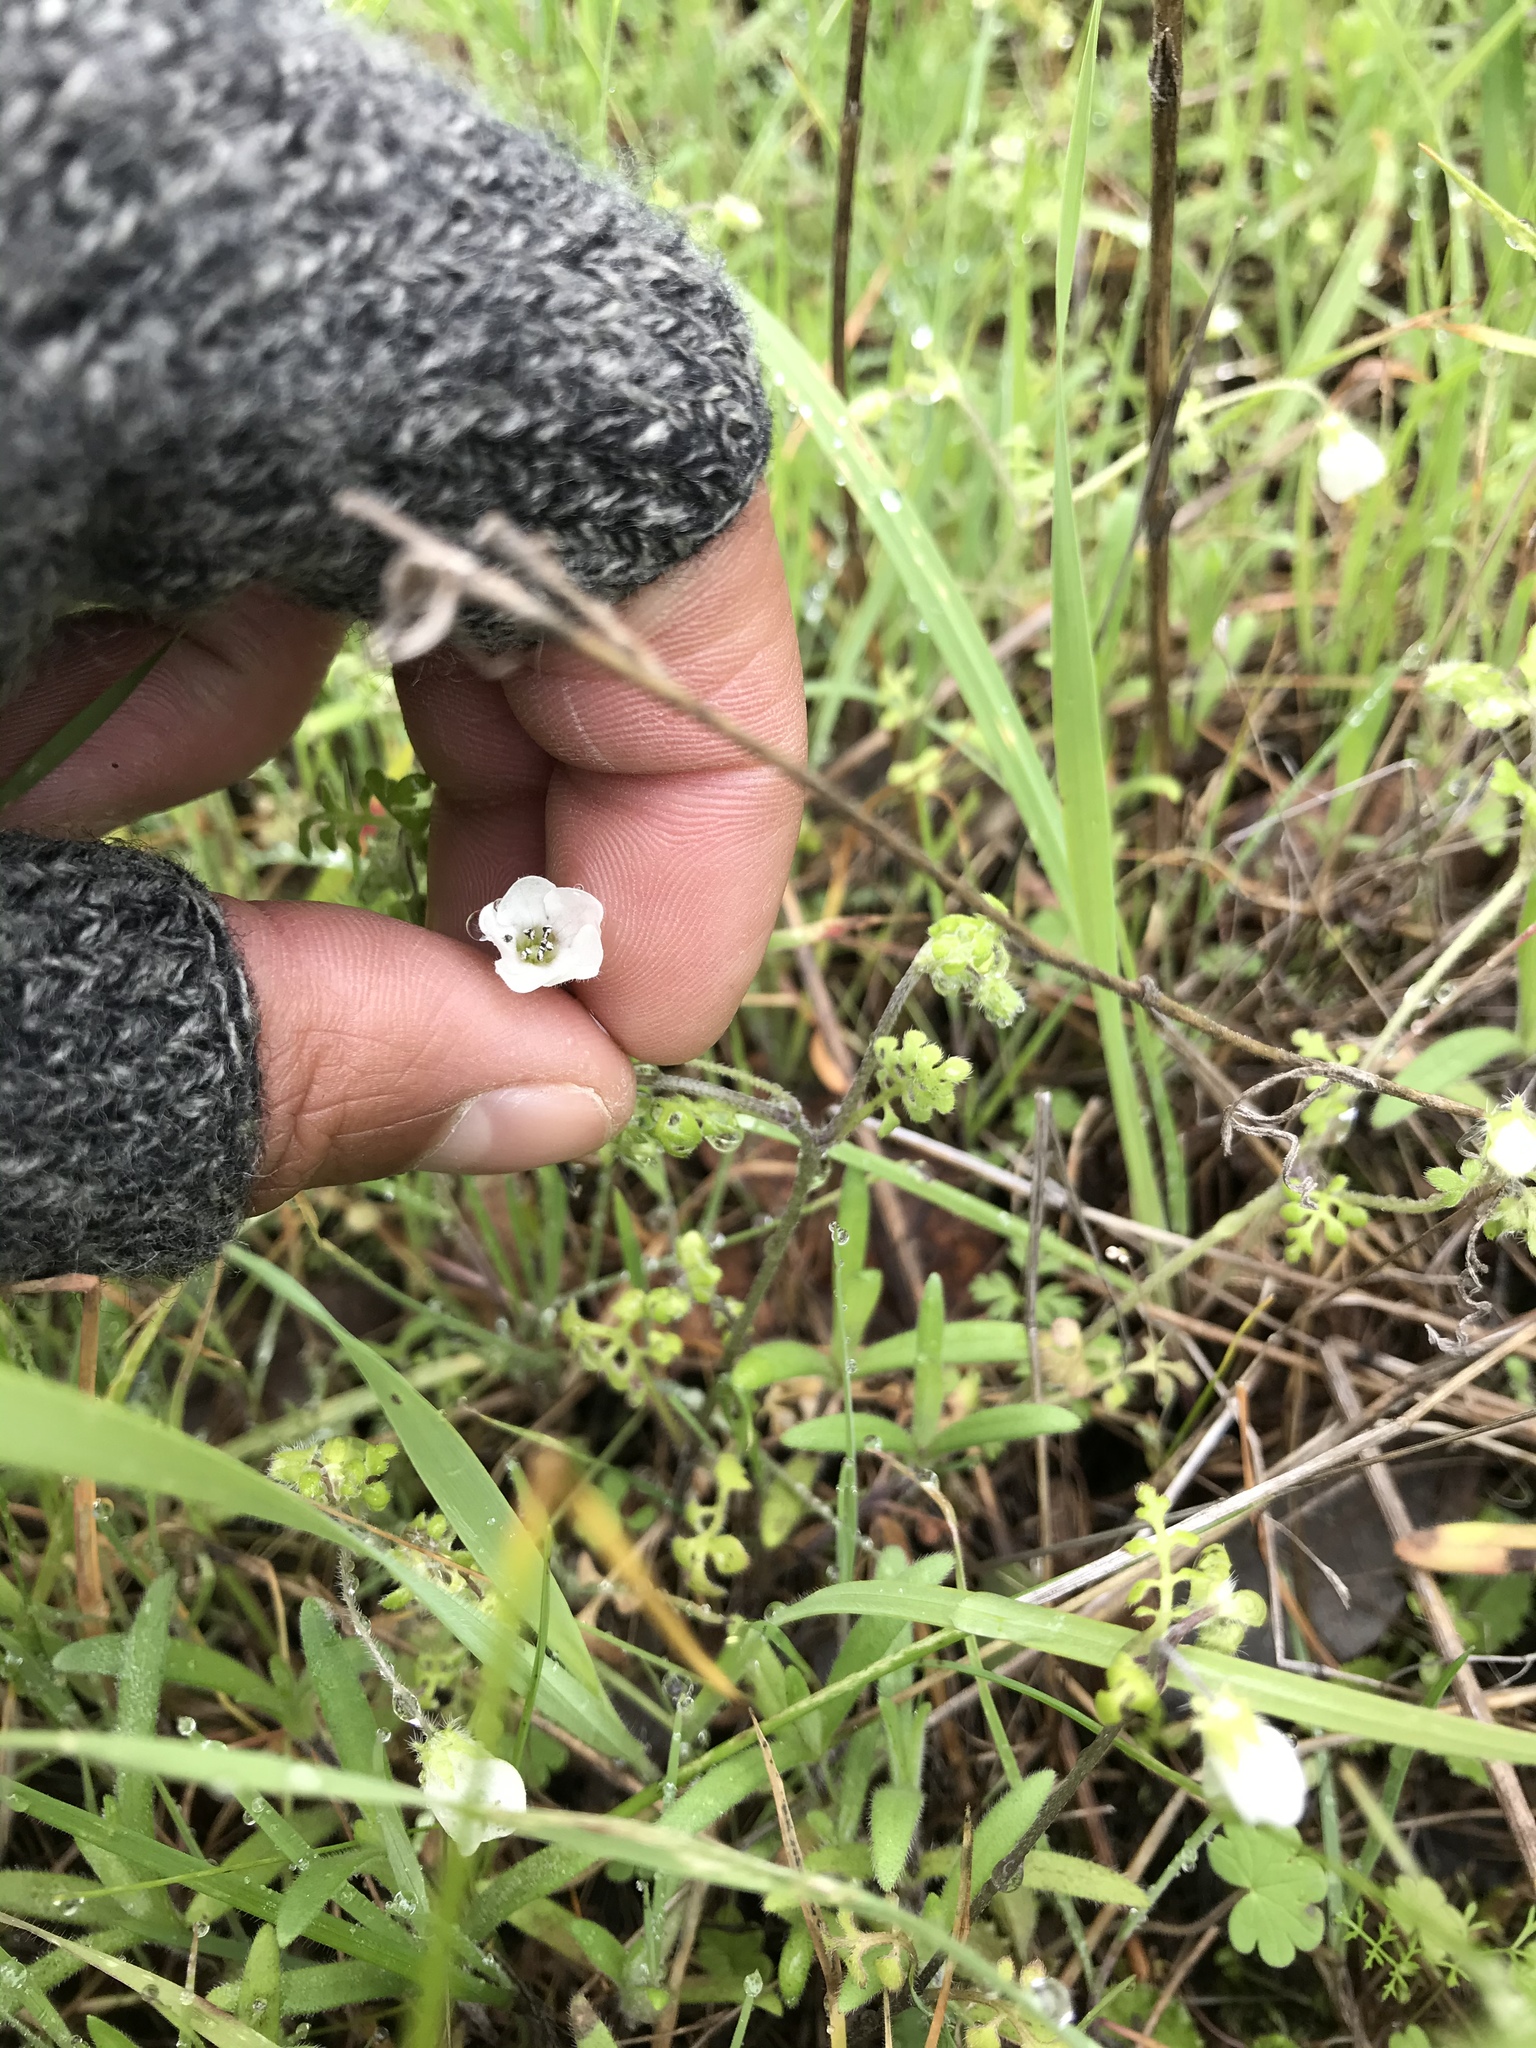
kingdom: Plantae
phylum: Tracheophyta
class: Magnoliopsida
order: Boraginales
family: Hydrophyllaceae
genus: Nemophila
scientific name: Nemophila heterophylla
